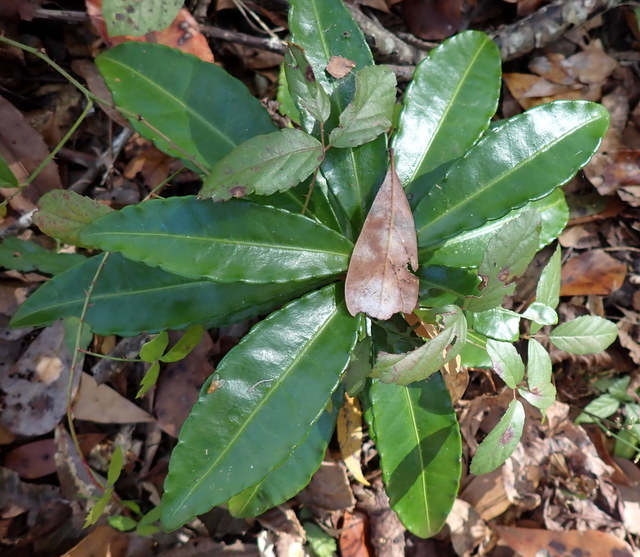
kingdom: Plantae
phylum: Tracheophyta
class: Magnoliopsida
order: Ericales
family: Primulaceae
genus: Ardisia
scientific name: Ardisia crenata
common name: Hen's eyes
